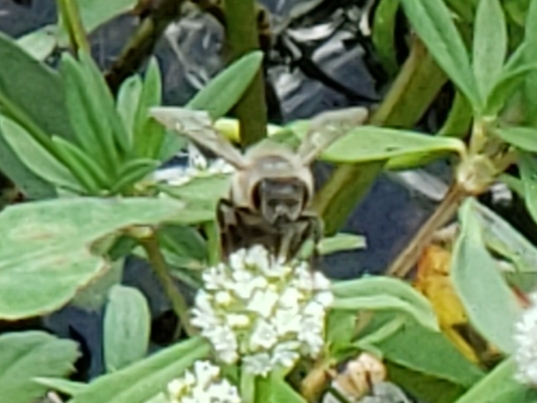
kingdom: Animalia
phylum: Arthropoda
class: Insecta
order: Hymenoptera
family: Apidae
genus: Apis
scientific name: Apis mellifera
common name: Honey bee
